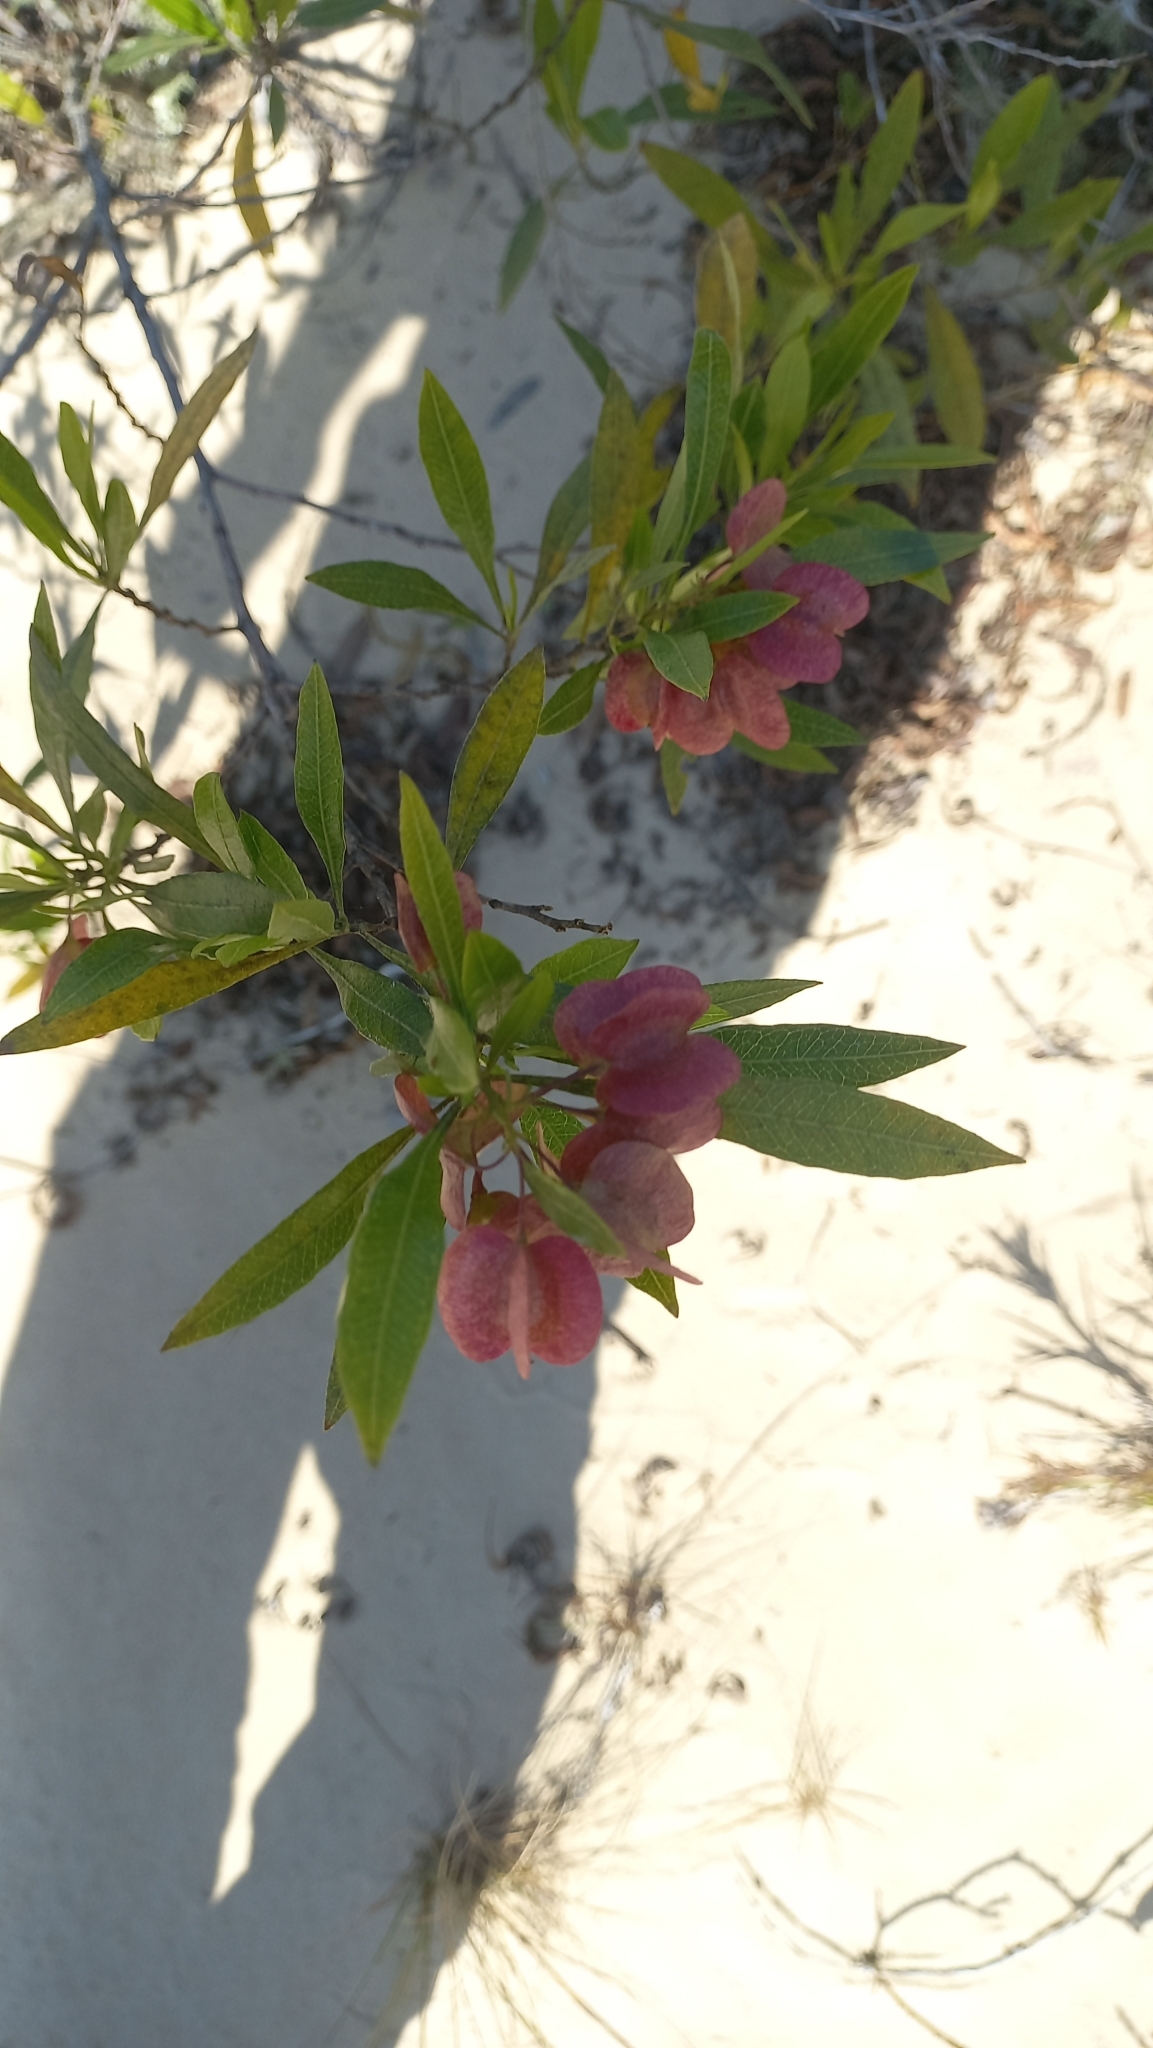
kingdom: Plantae
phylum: Tracheophyta
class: Magnoliopsida
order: Sapindales
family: Sapindaceae
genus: Dodonaea
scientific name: Dodonaea viscosa
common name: Hopbush
